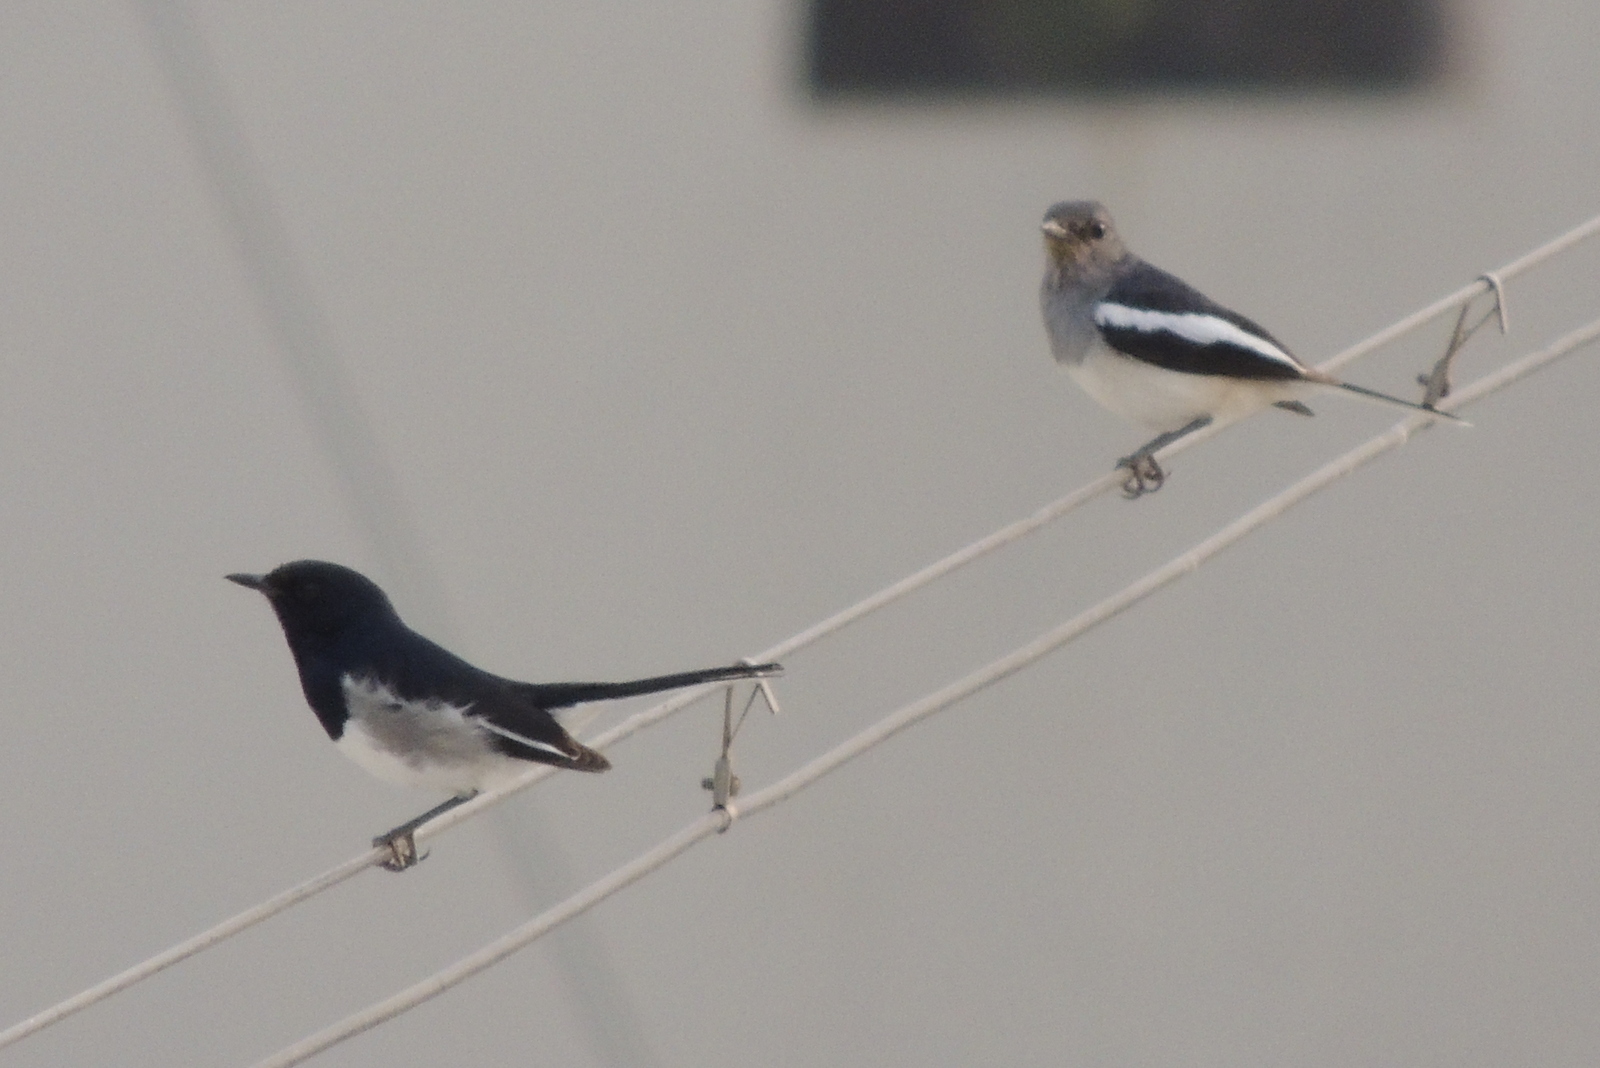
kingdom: Animalia
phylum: Chordata
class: Aves
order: Passeriformes
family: Muscicapidae
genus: Copsychus
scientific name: Copsychus saularis
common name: Oriental magpie-robin
